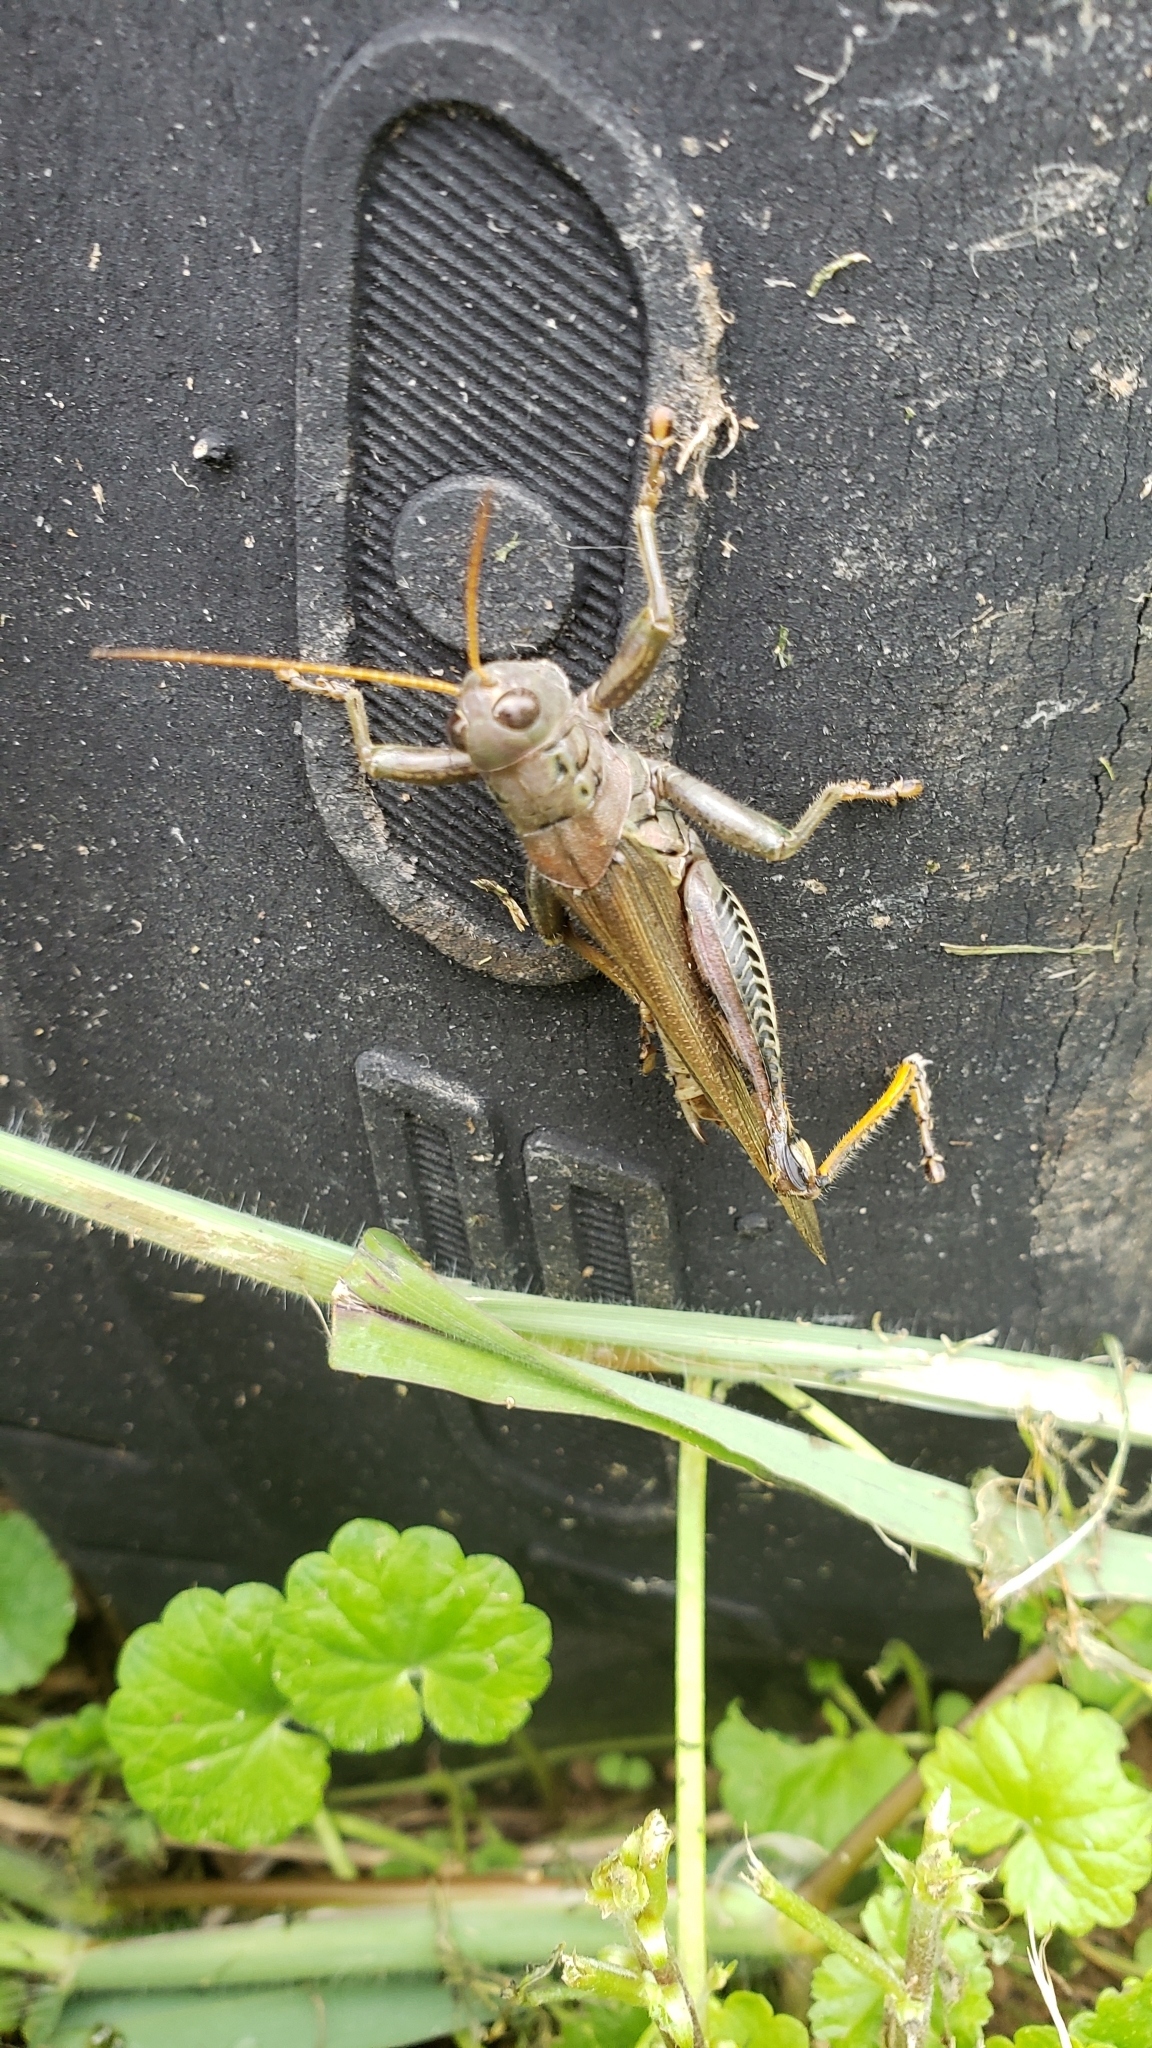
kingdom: Animalia
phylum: Arthropoda
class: Insecta
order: Orthoptera
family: Acrididae
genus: Melanoplus
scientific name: Melanoplus differentialis
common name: Differential grasshopper
